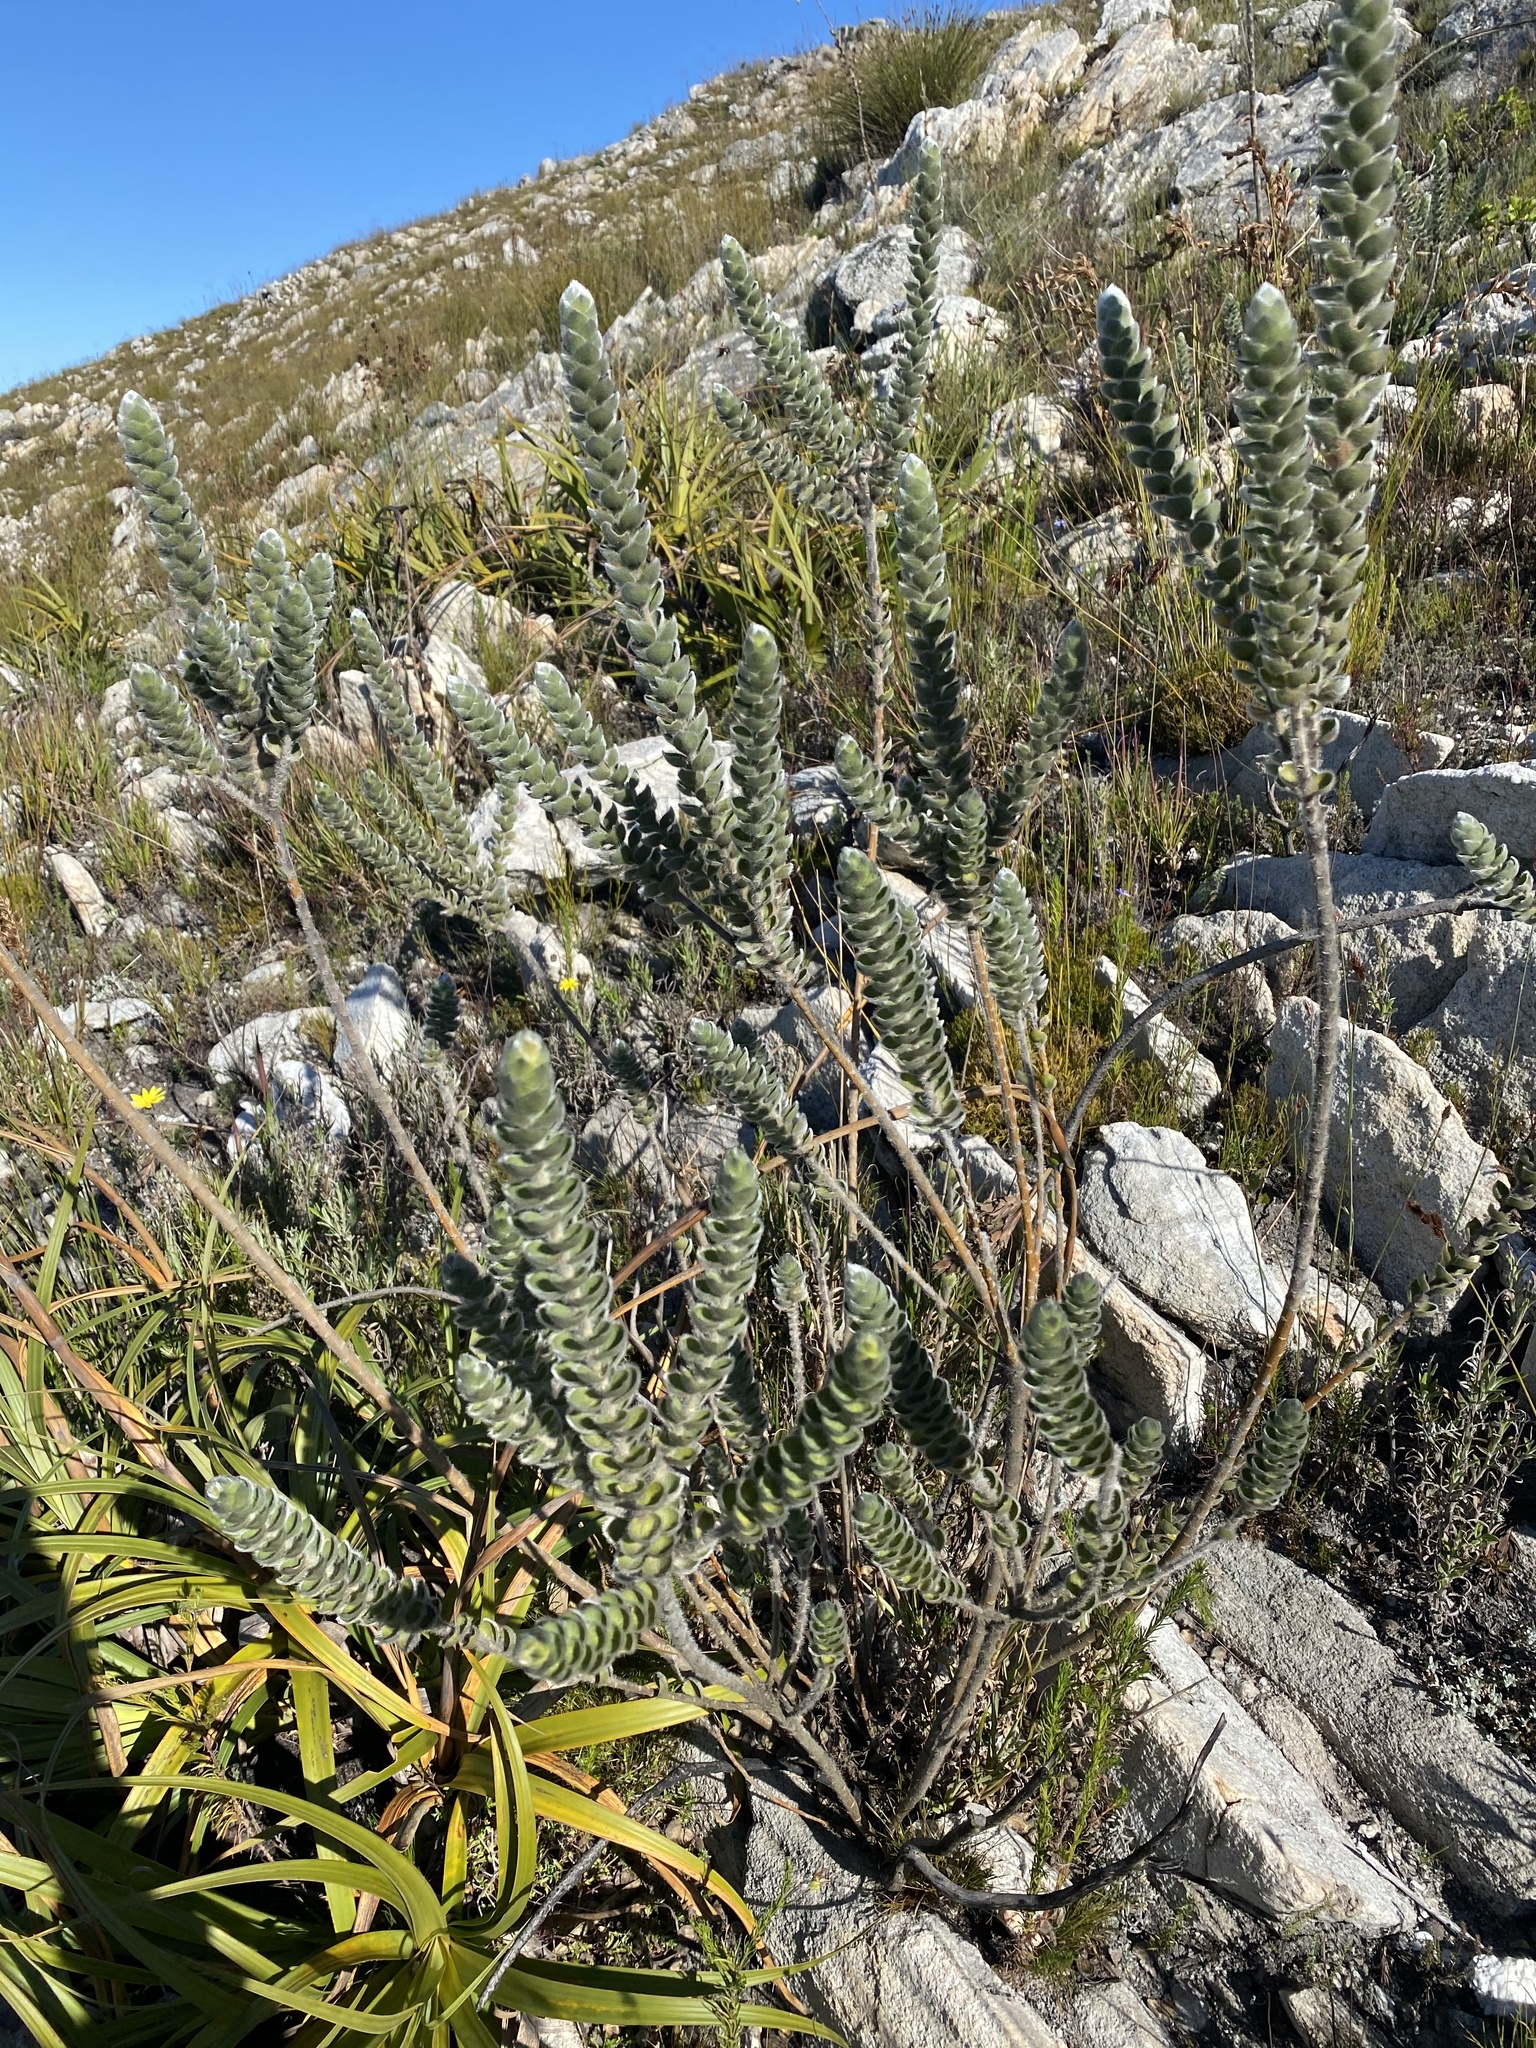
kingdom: Plantae
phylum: Tracheophyta
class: Magnoliopsida
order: Fabales
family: Fabaceae
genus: Liparia
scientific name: Liparia vestita
